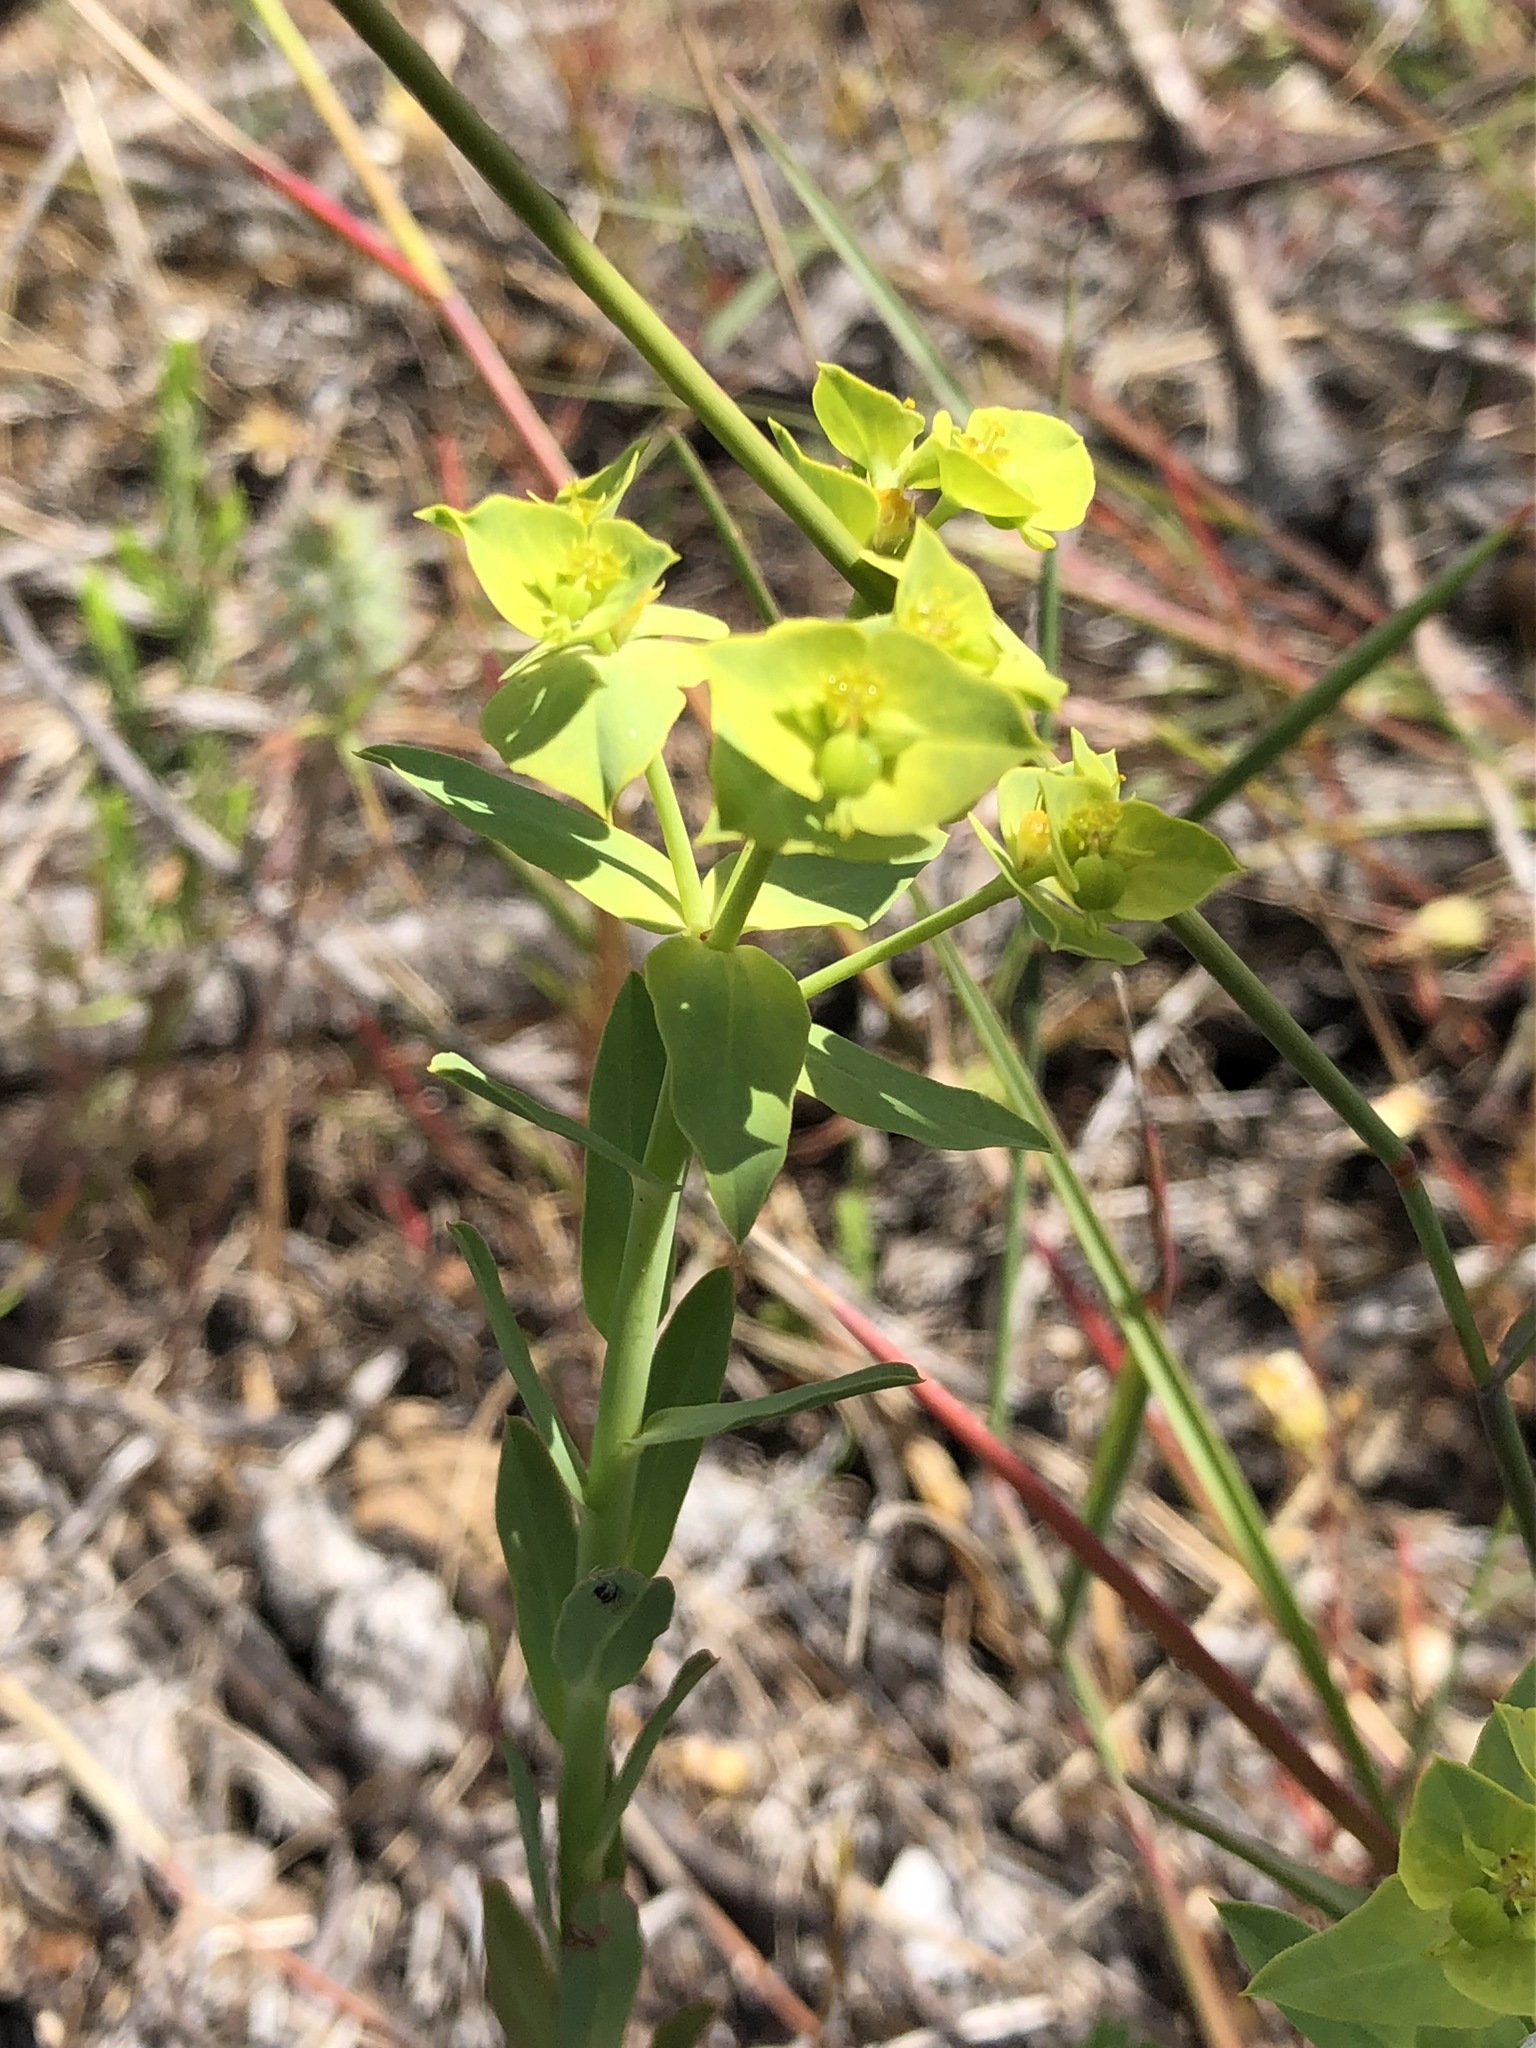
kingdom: Plantae
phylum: Tracheophyta
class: Magnoliopsida
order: Malpighiales
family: Euphorbiaceae
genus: Euphorbia
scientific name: Euphorbia terracina
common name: Geraldton carnation weed
